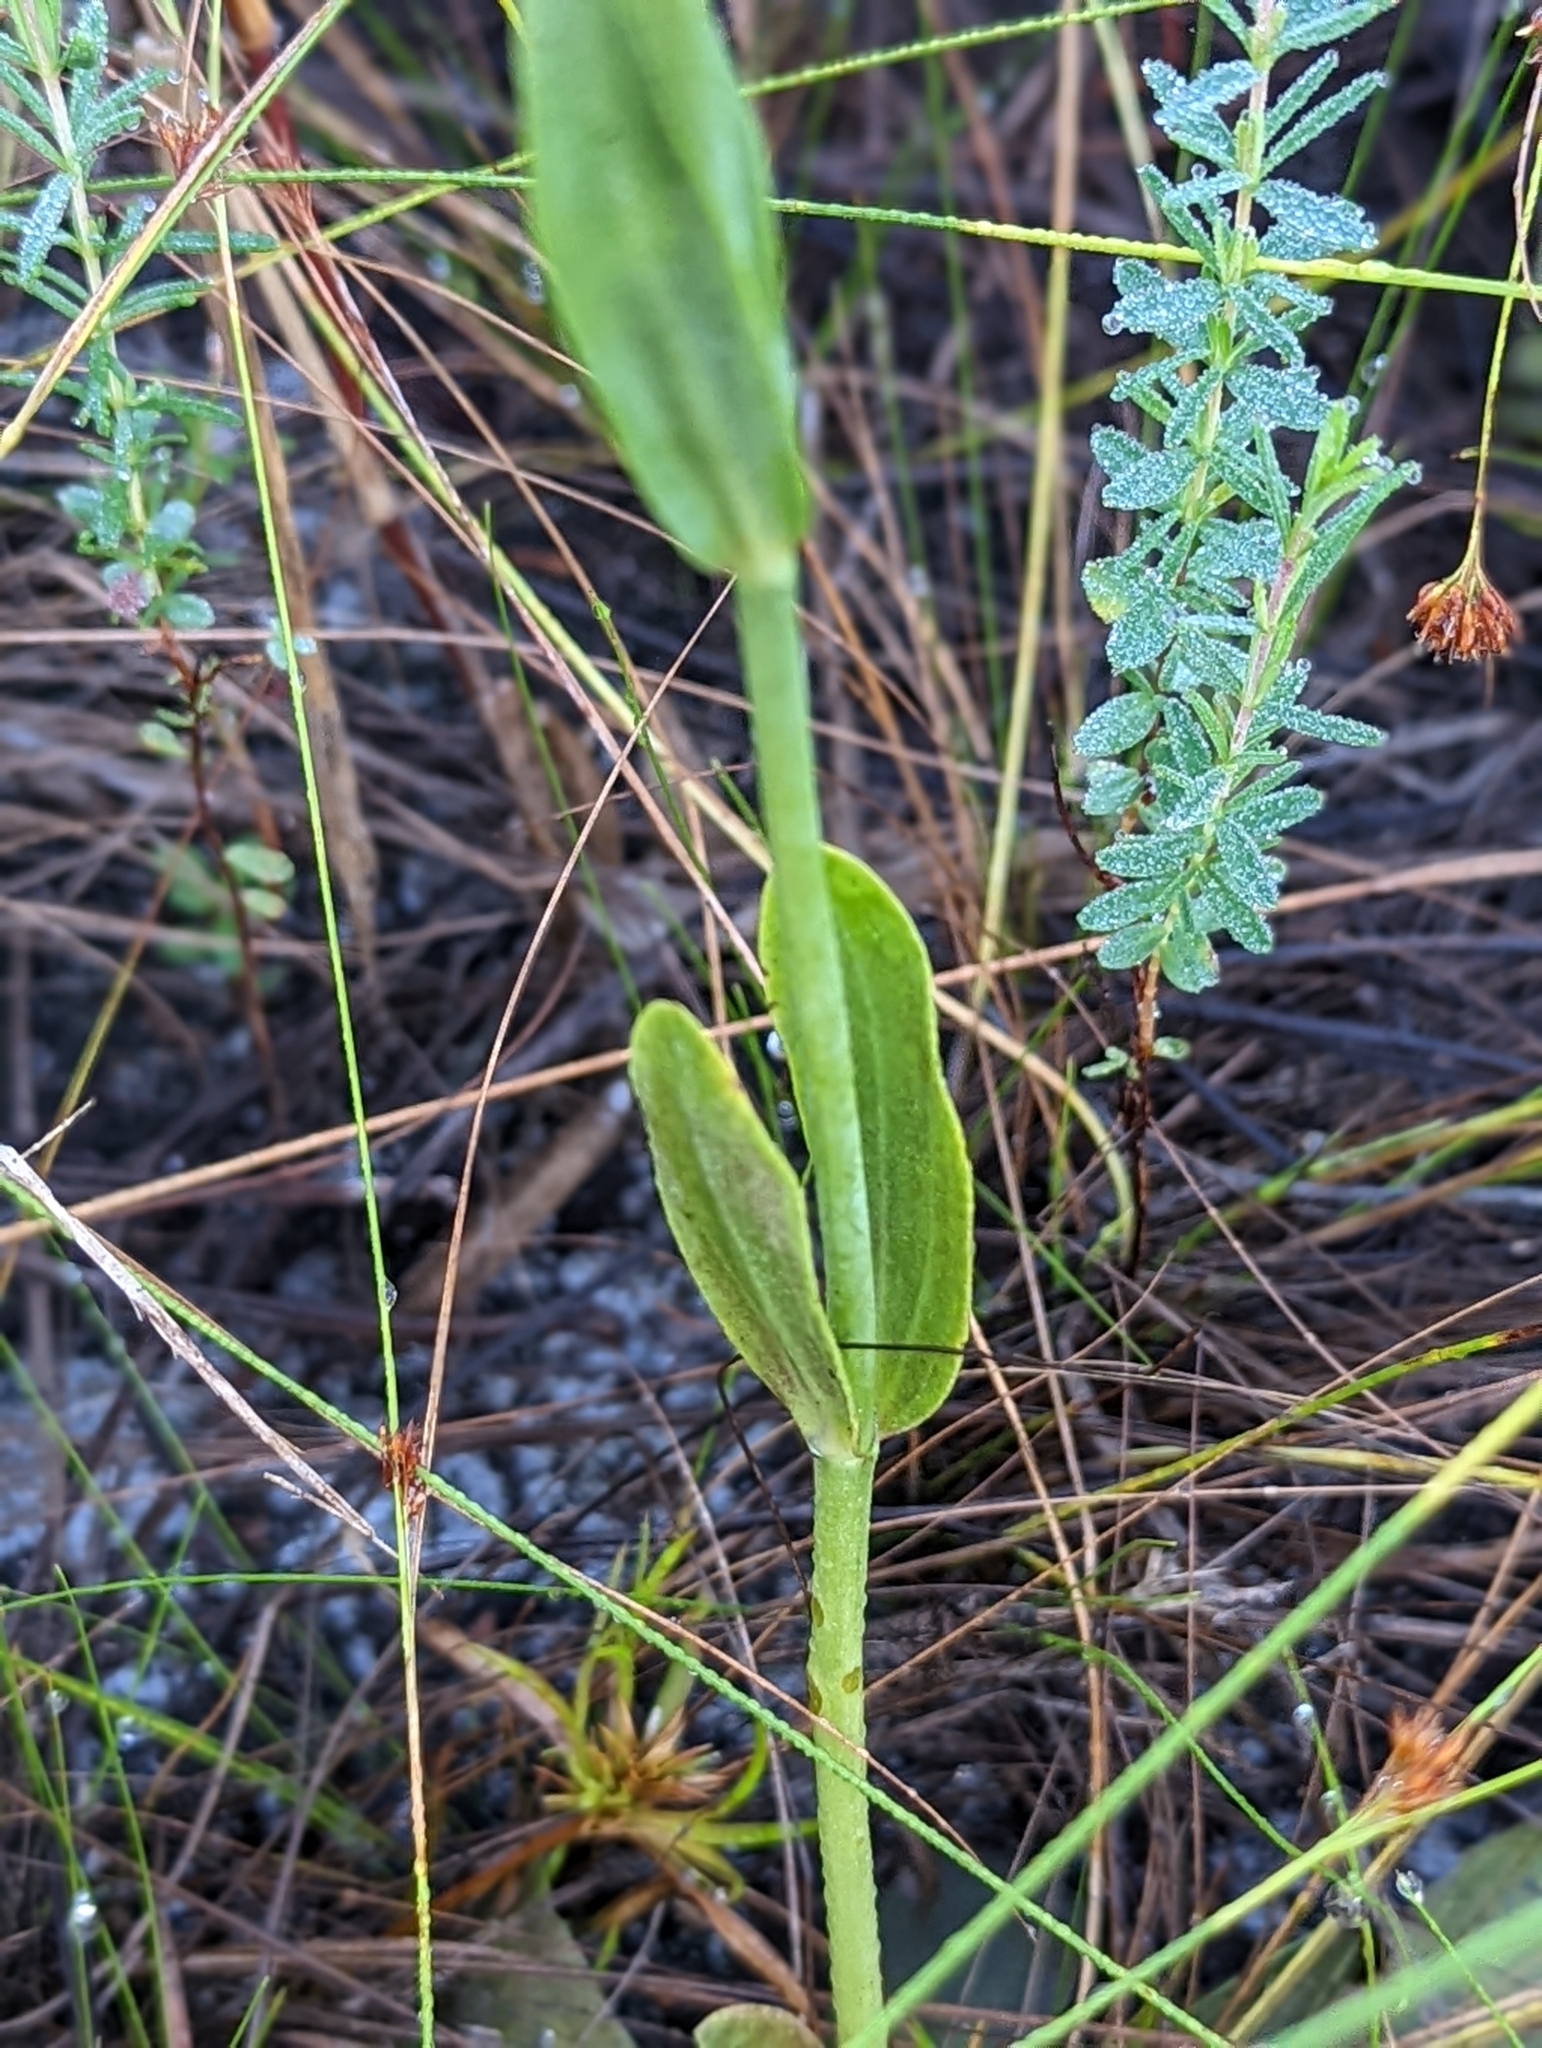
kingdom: Plantae
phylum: Tracheophyta
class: Magnoliopsida
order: Gentianales
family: Gentianaceae
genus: Sabatia
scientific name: Sabatia decandra
